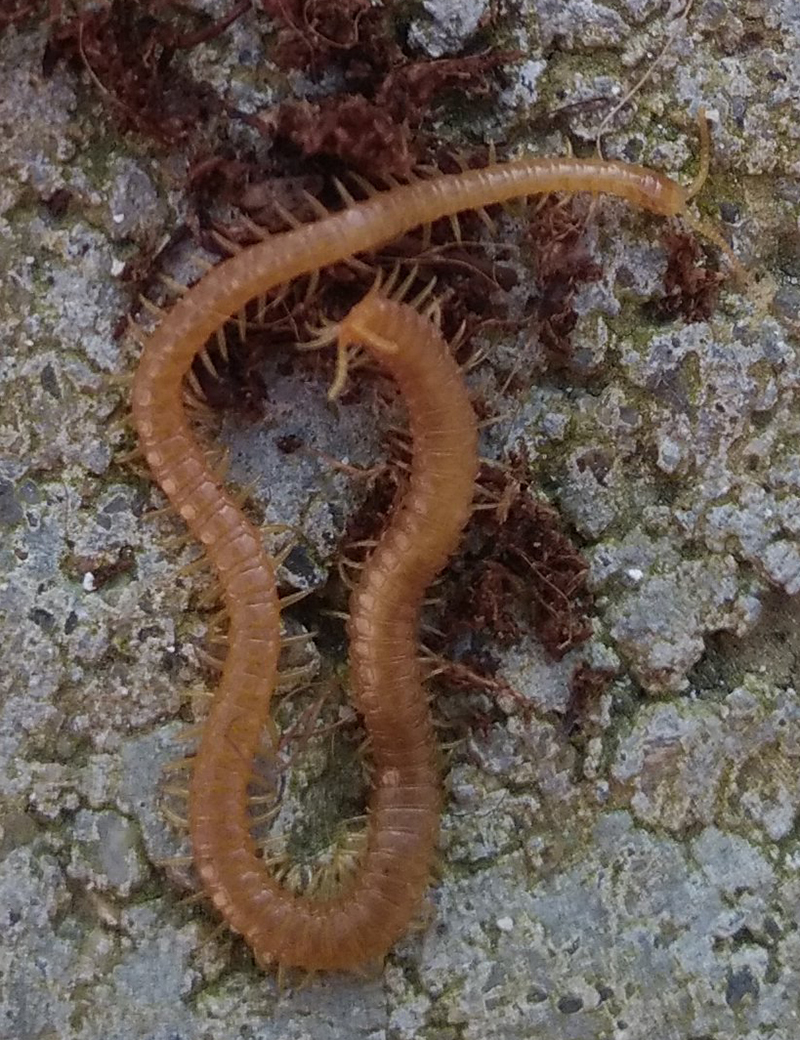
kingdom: Animalia
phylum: Arthropoda
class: Chilopoda
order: Geophilomorpha
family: Himantariidae
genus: Stigmatogaster
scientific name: Stigmatogaster subterranea
